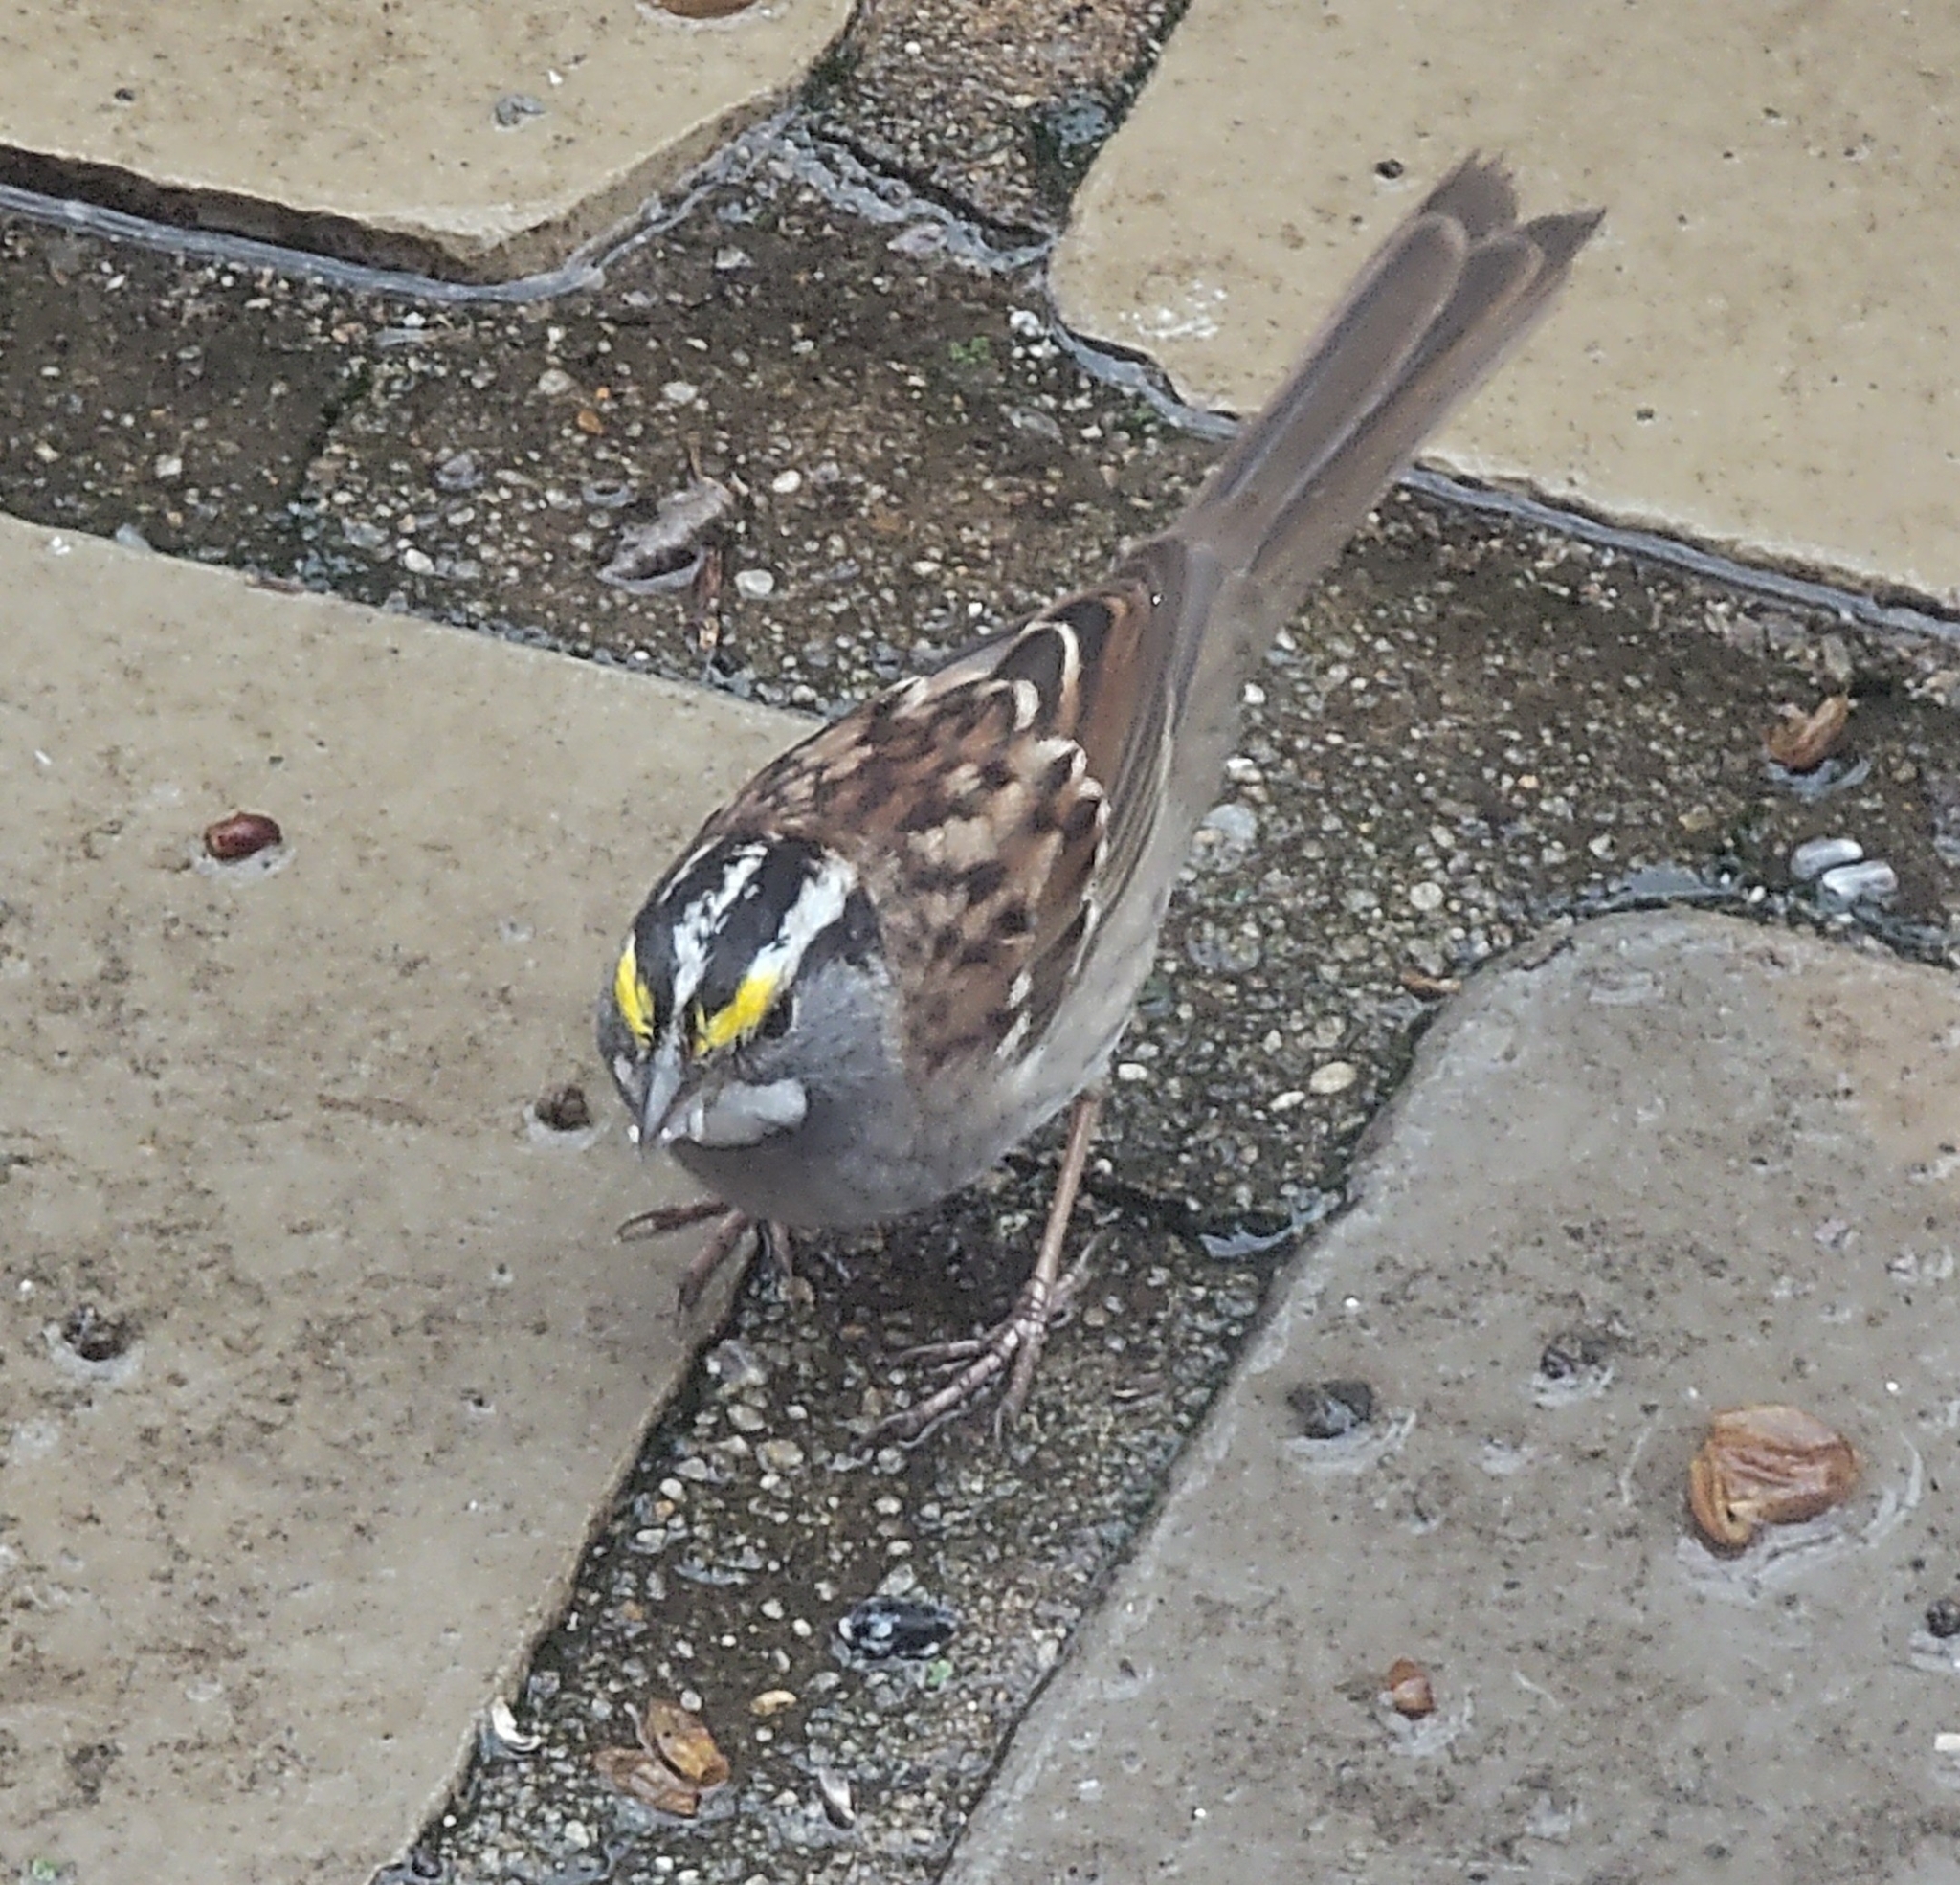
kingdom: Animalia
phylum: Chordata
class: Aves
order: Passeriformes
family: Passerellidae
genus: Zonotrichia
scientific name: Zonotrichia albicollis
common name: White-throated sparrow
